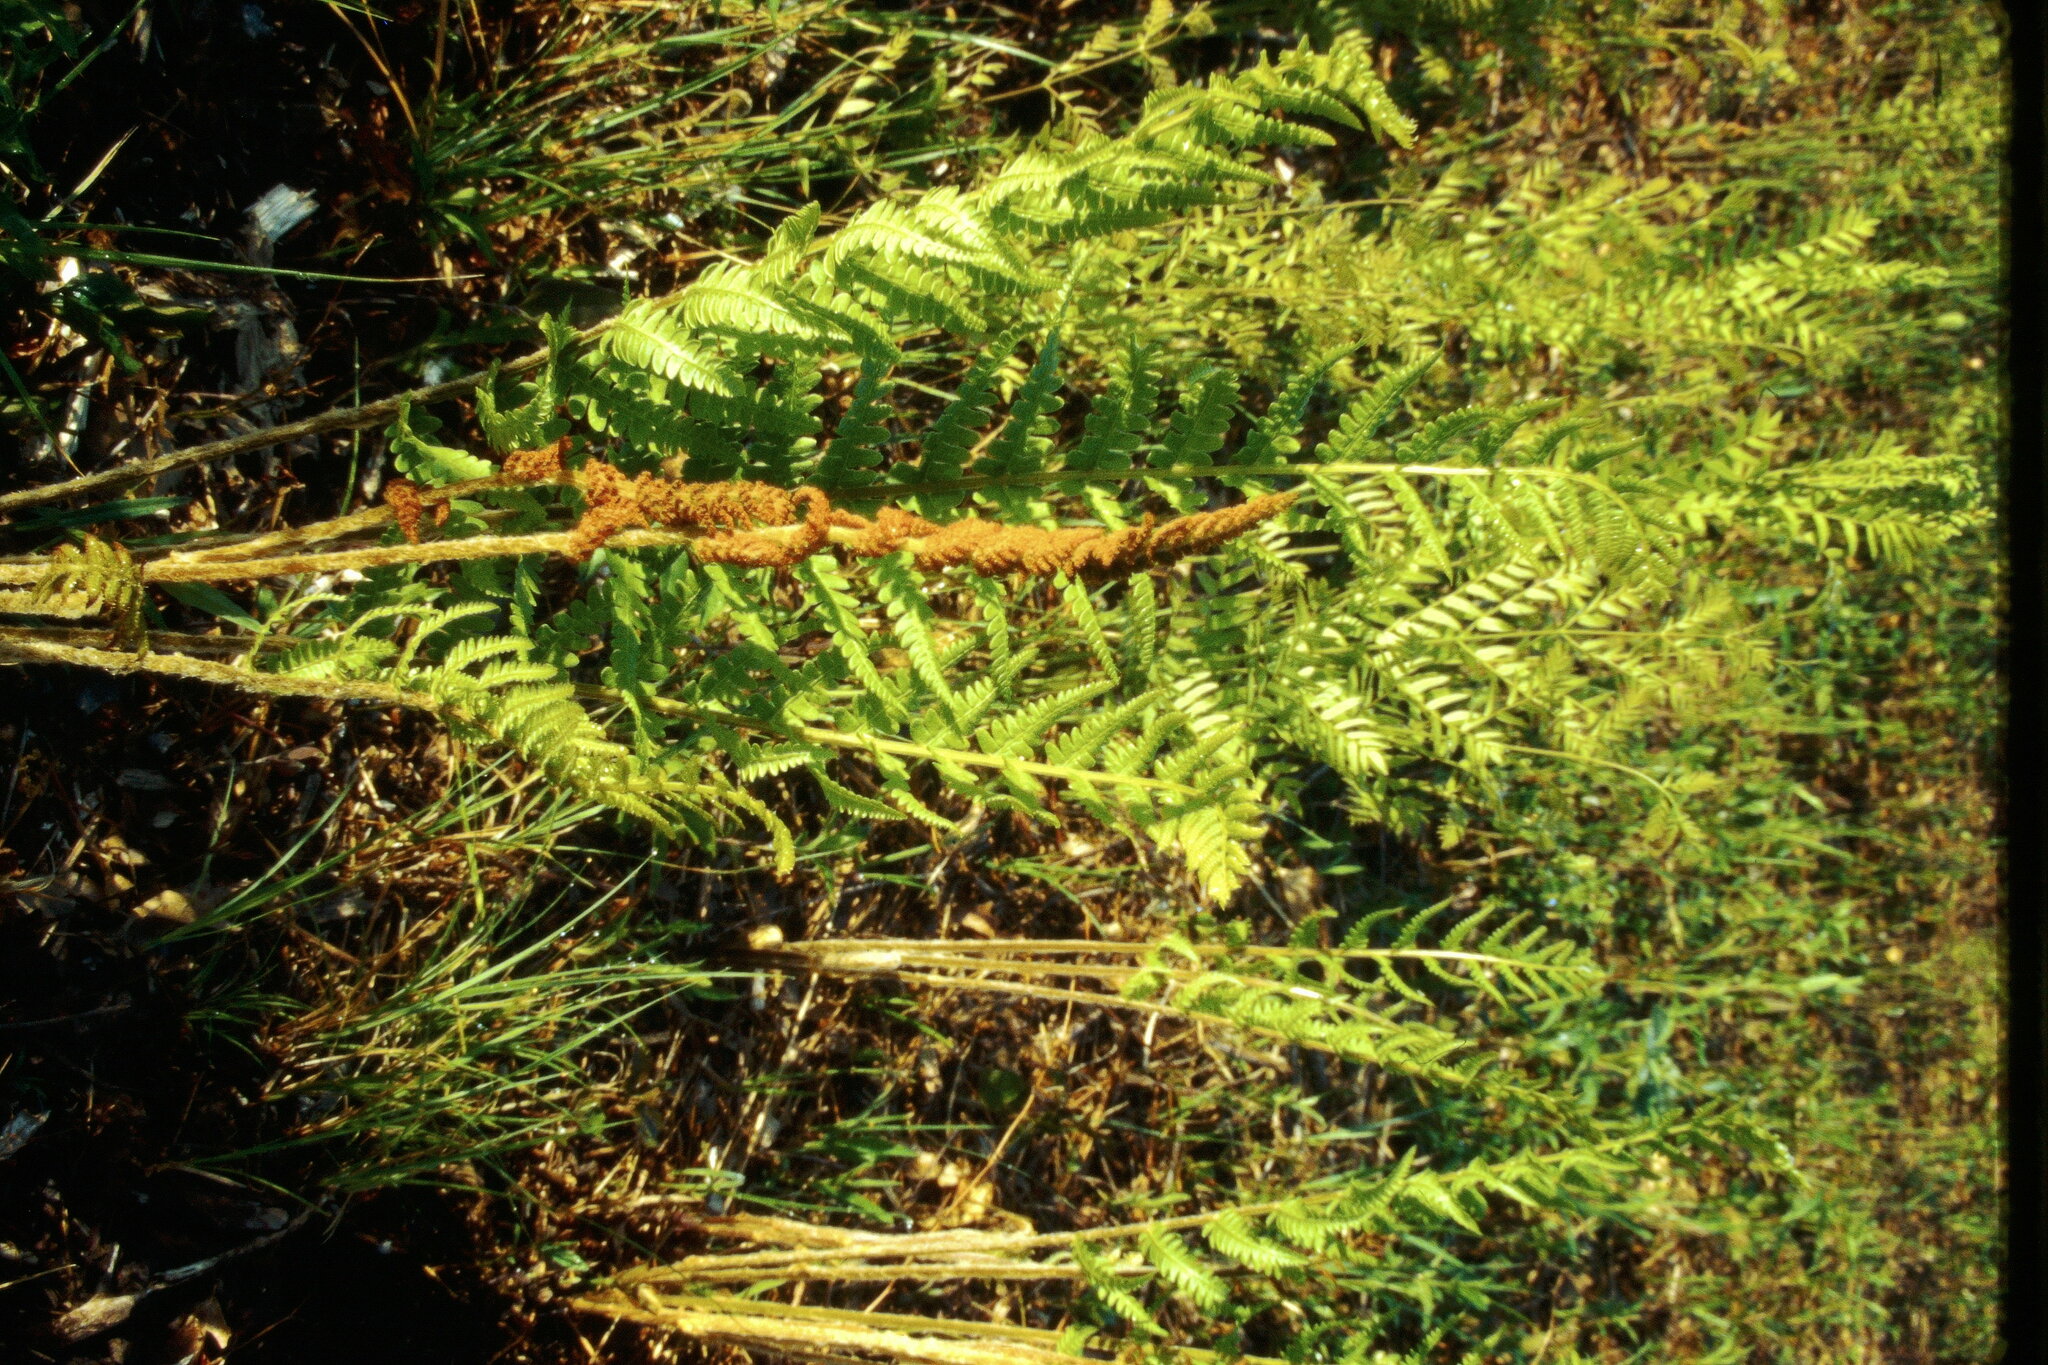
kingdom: Plantae
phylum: Tracheophyta
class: Polypodiopsida
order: Osmundales
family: Osmundaceae
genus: Osmundastrum
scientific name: Osmundastrum cinnamomeum
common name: Cinnamon fern
